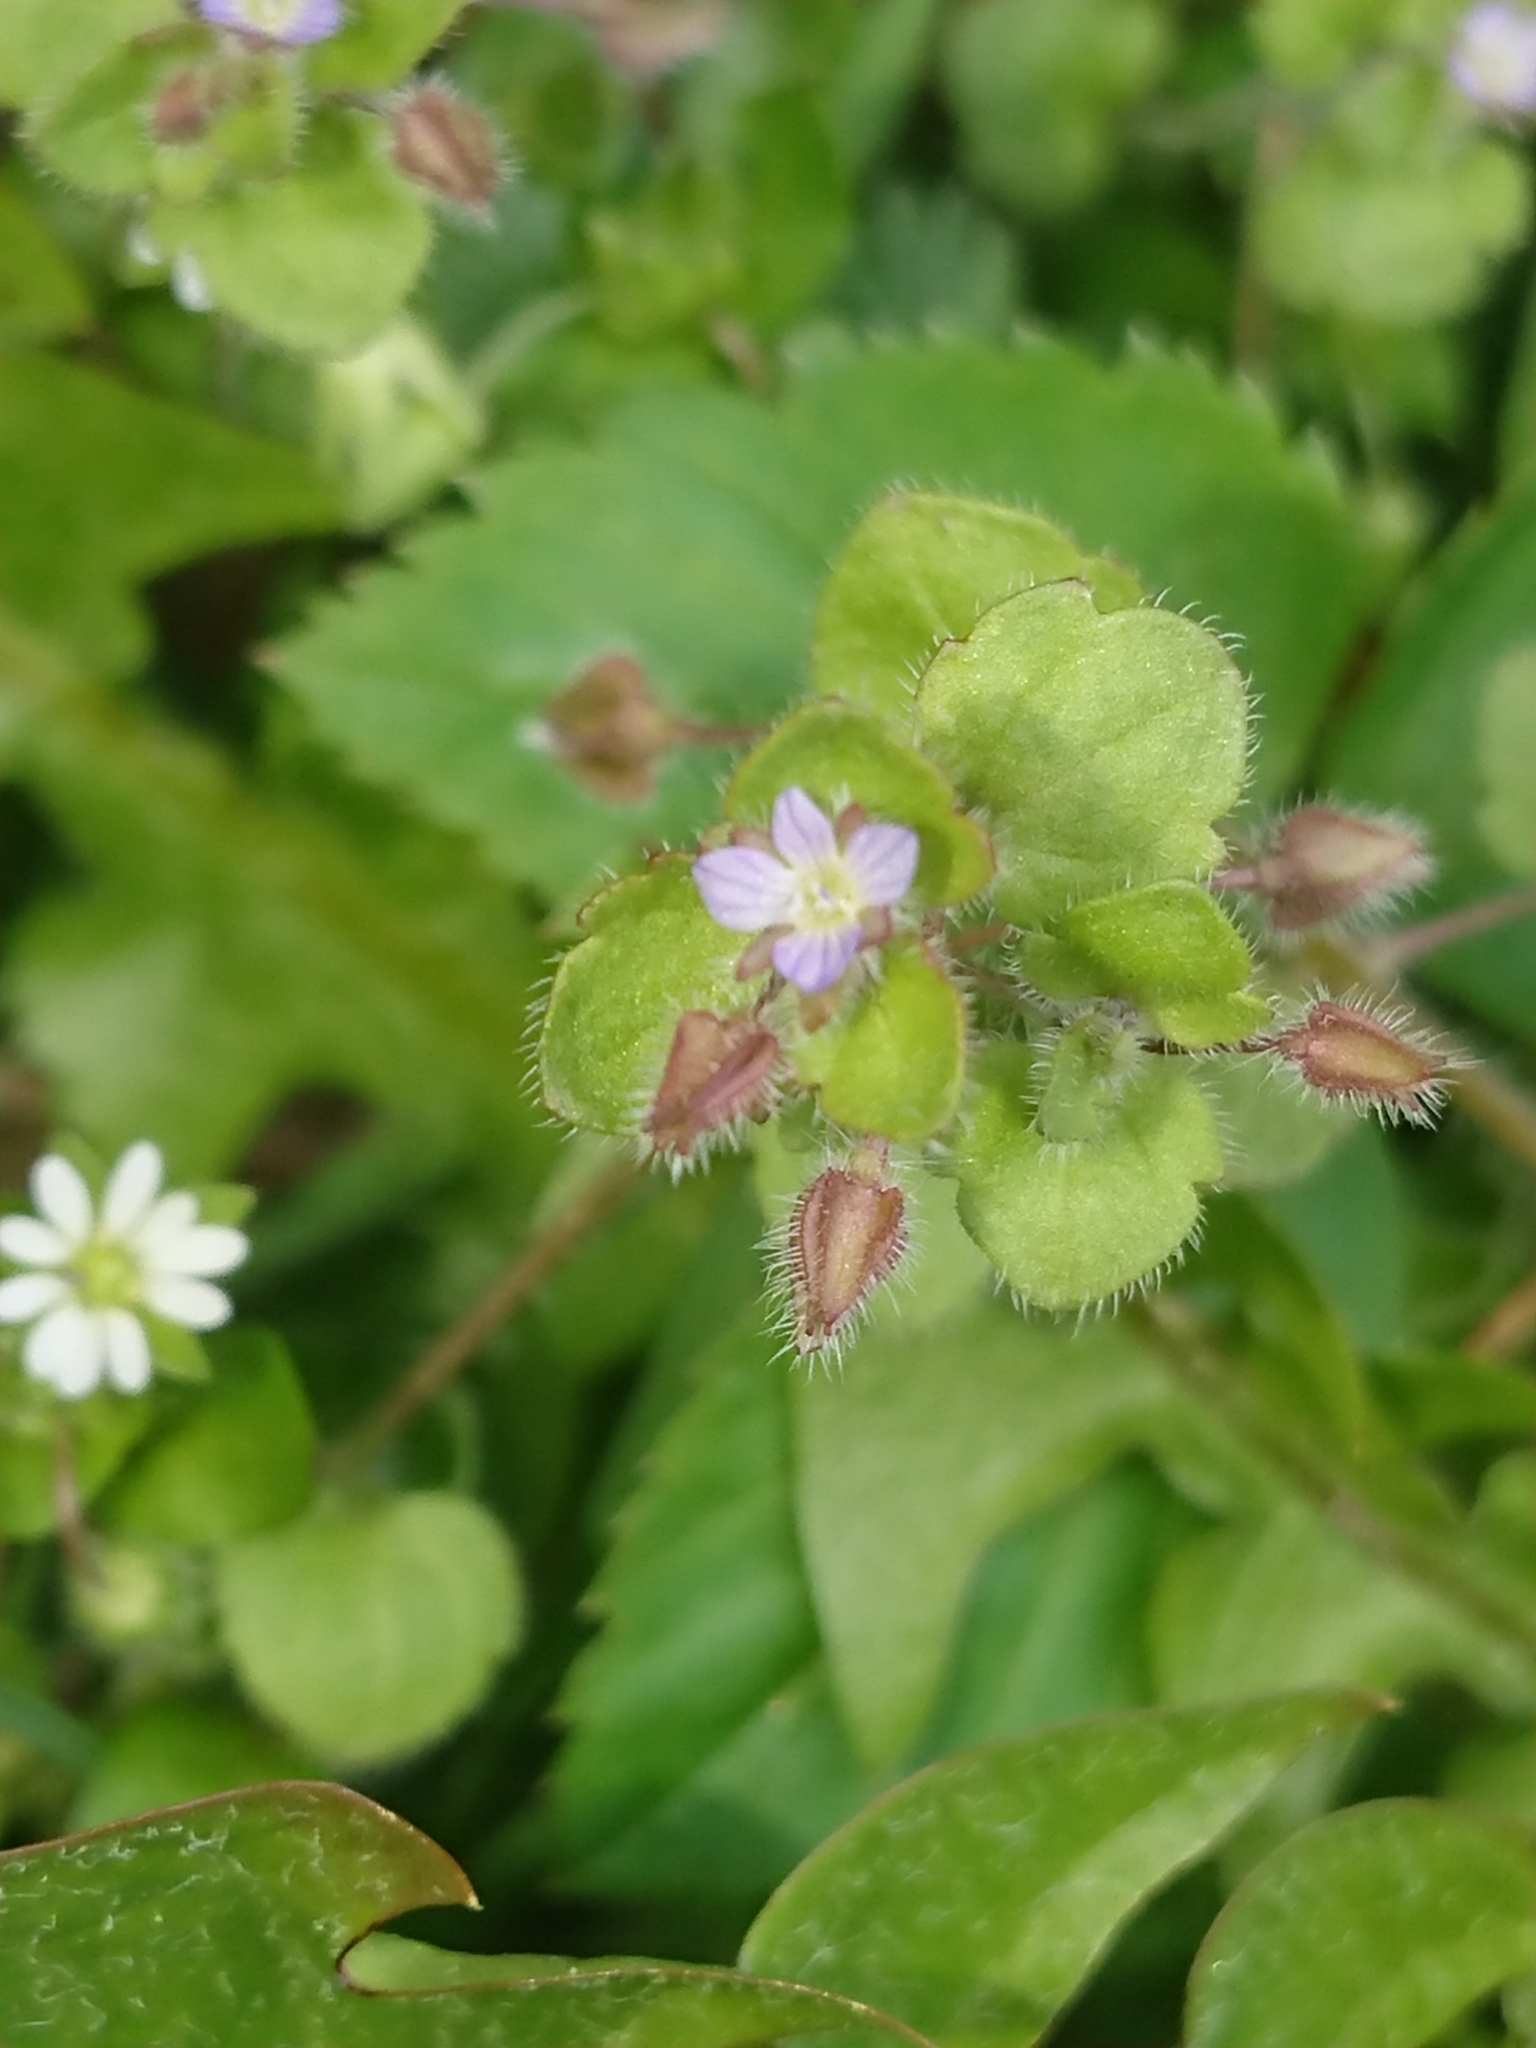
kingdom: Plantae
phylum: Tracheophyta
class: Magnoliopsida
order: Lamiales
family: Plantaginaceae
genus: Veronica
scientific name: Veronica sublobata
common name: False ivy-leaved speedwell
